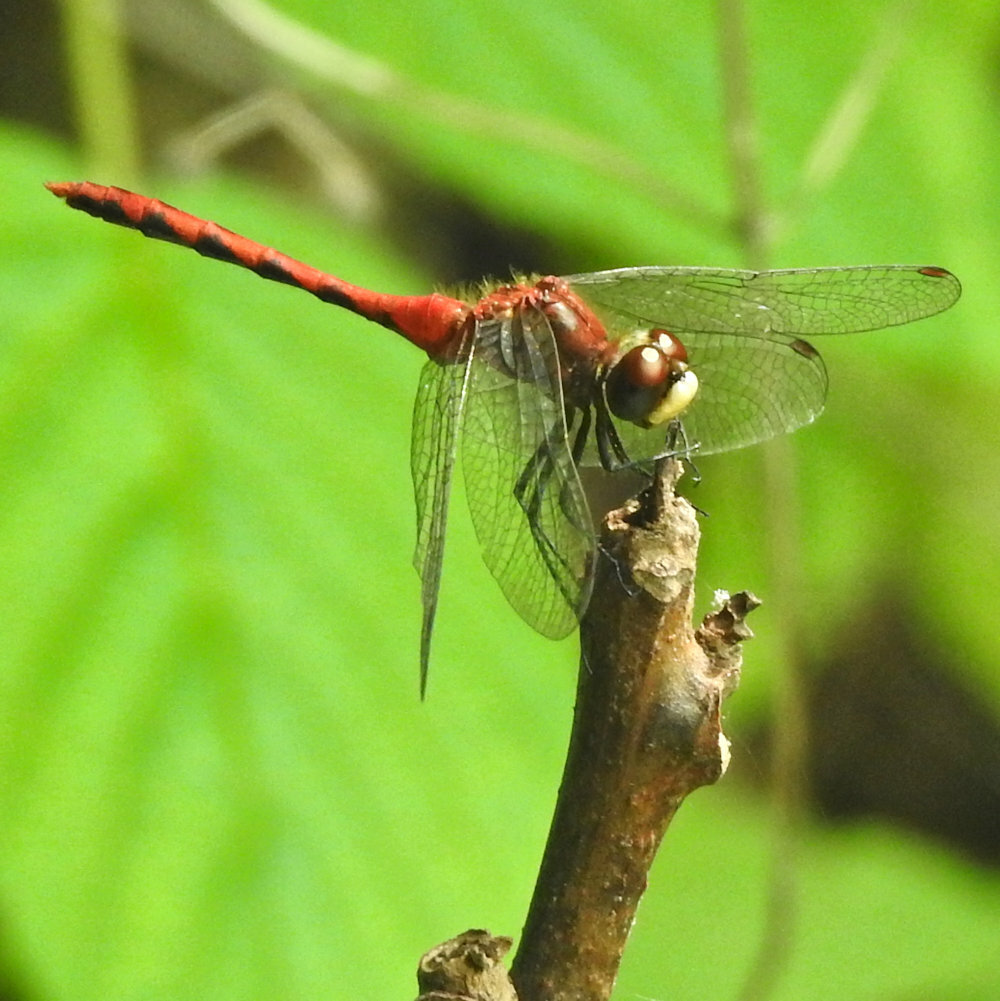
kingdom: Animalia
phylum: Arthropoda
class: Insecta
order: Odonata
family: Libellulidae
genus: Sympetrum
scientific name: Sympetrum obtrusum
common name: White-faced meadowhawk
